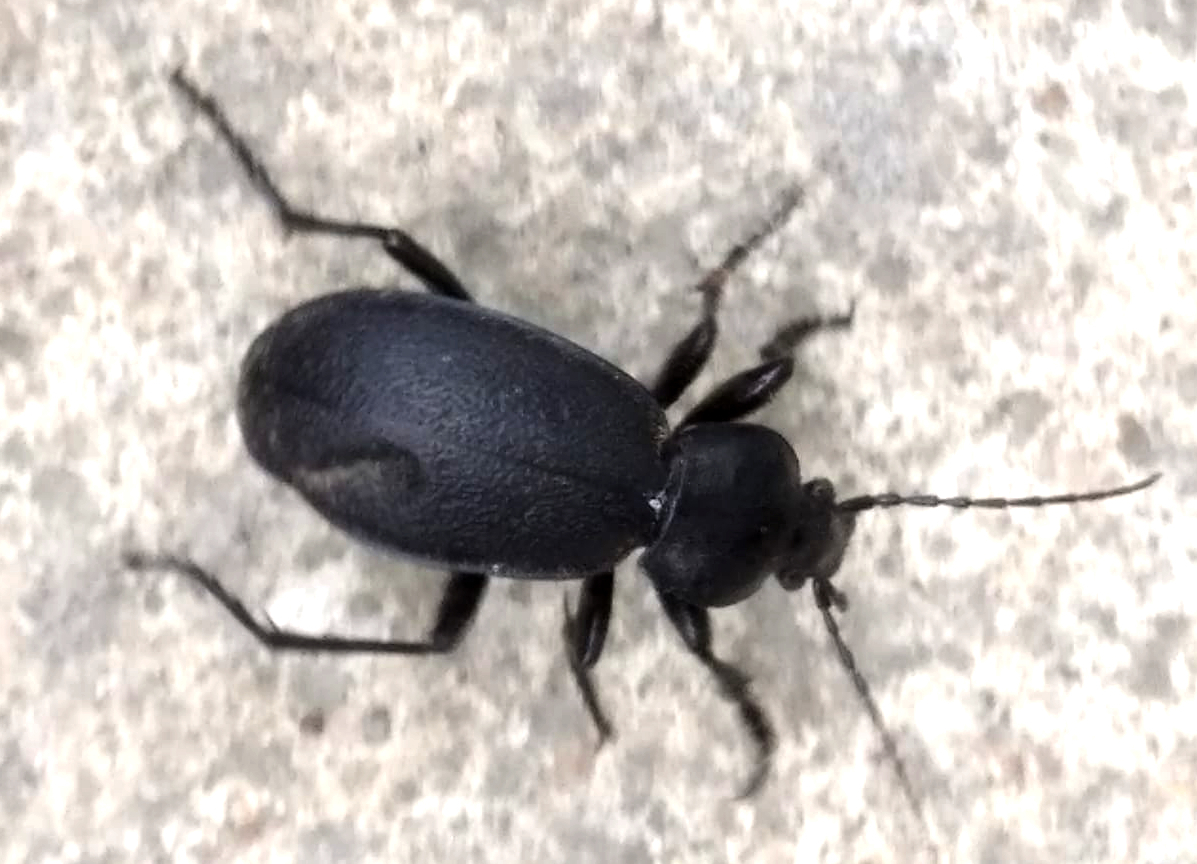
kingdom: Animalia
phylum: Arthropoda
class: Insecta
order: Coleoptera
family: Carabidae
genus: Carabus
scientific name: Carabus coriaceus
